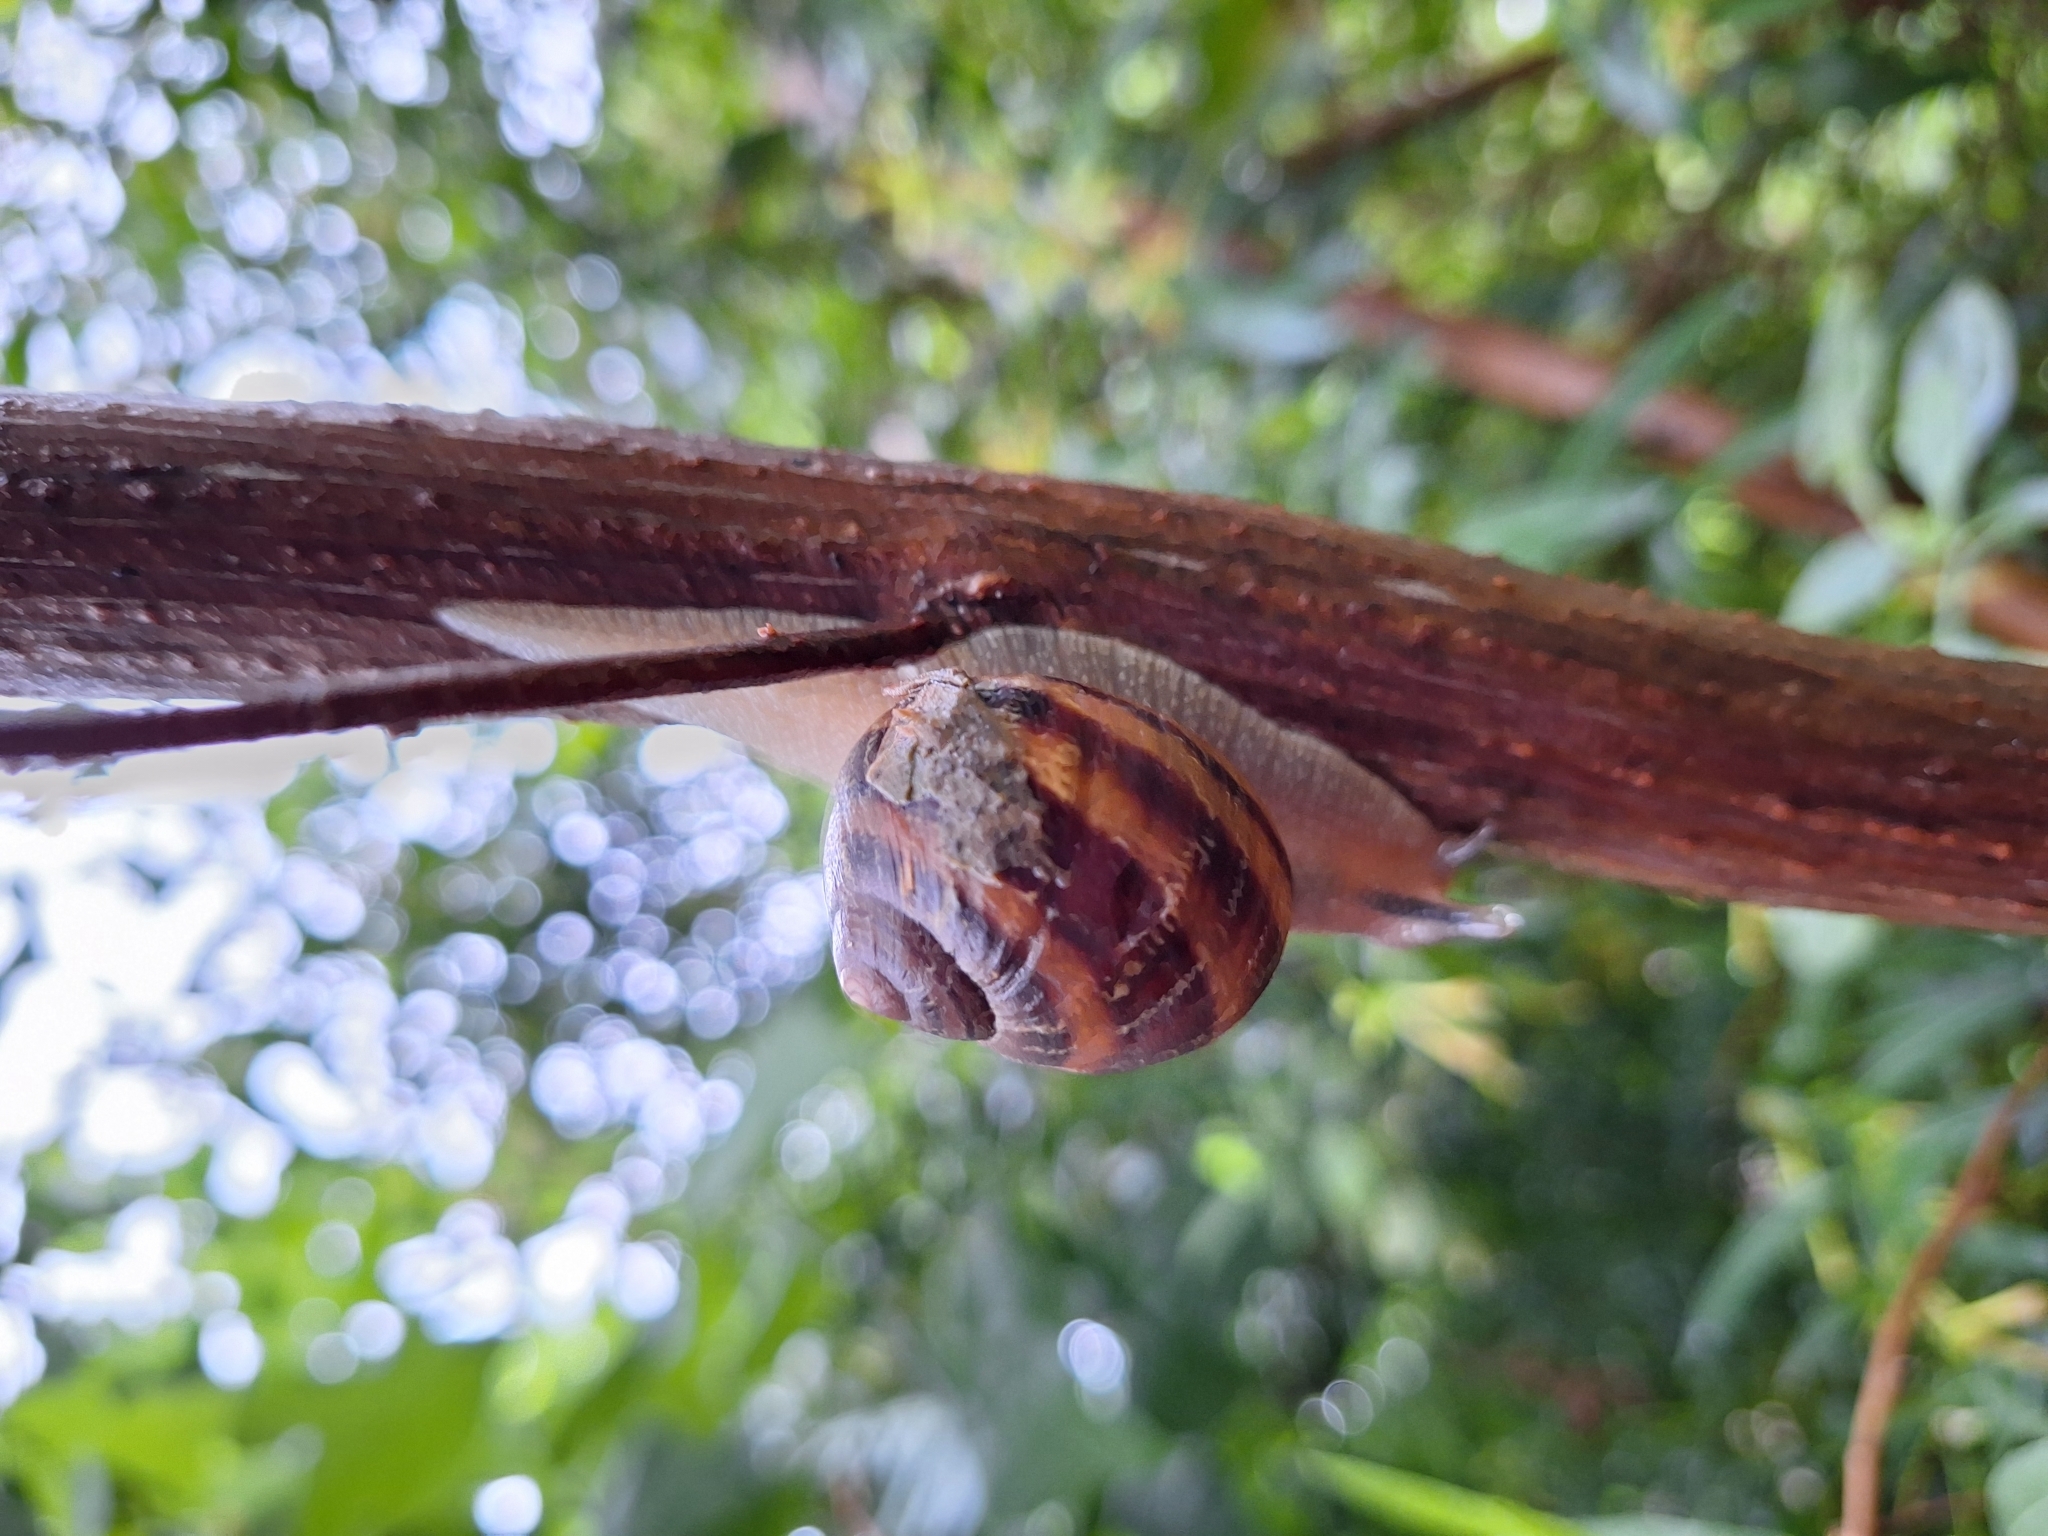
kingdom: Animalia
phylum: Mollusca
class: Gastropoda
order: Stylommatophora
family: Helicidae
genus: Cornu
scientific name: Cornu aspersum
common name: Brown garden snail
